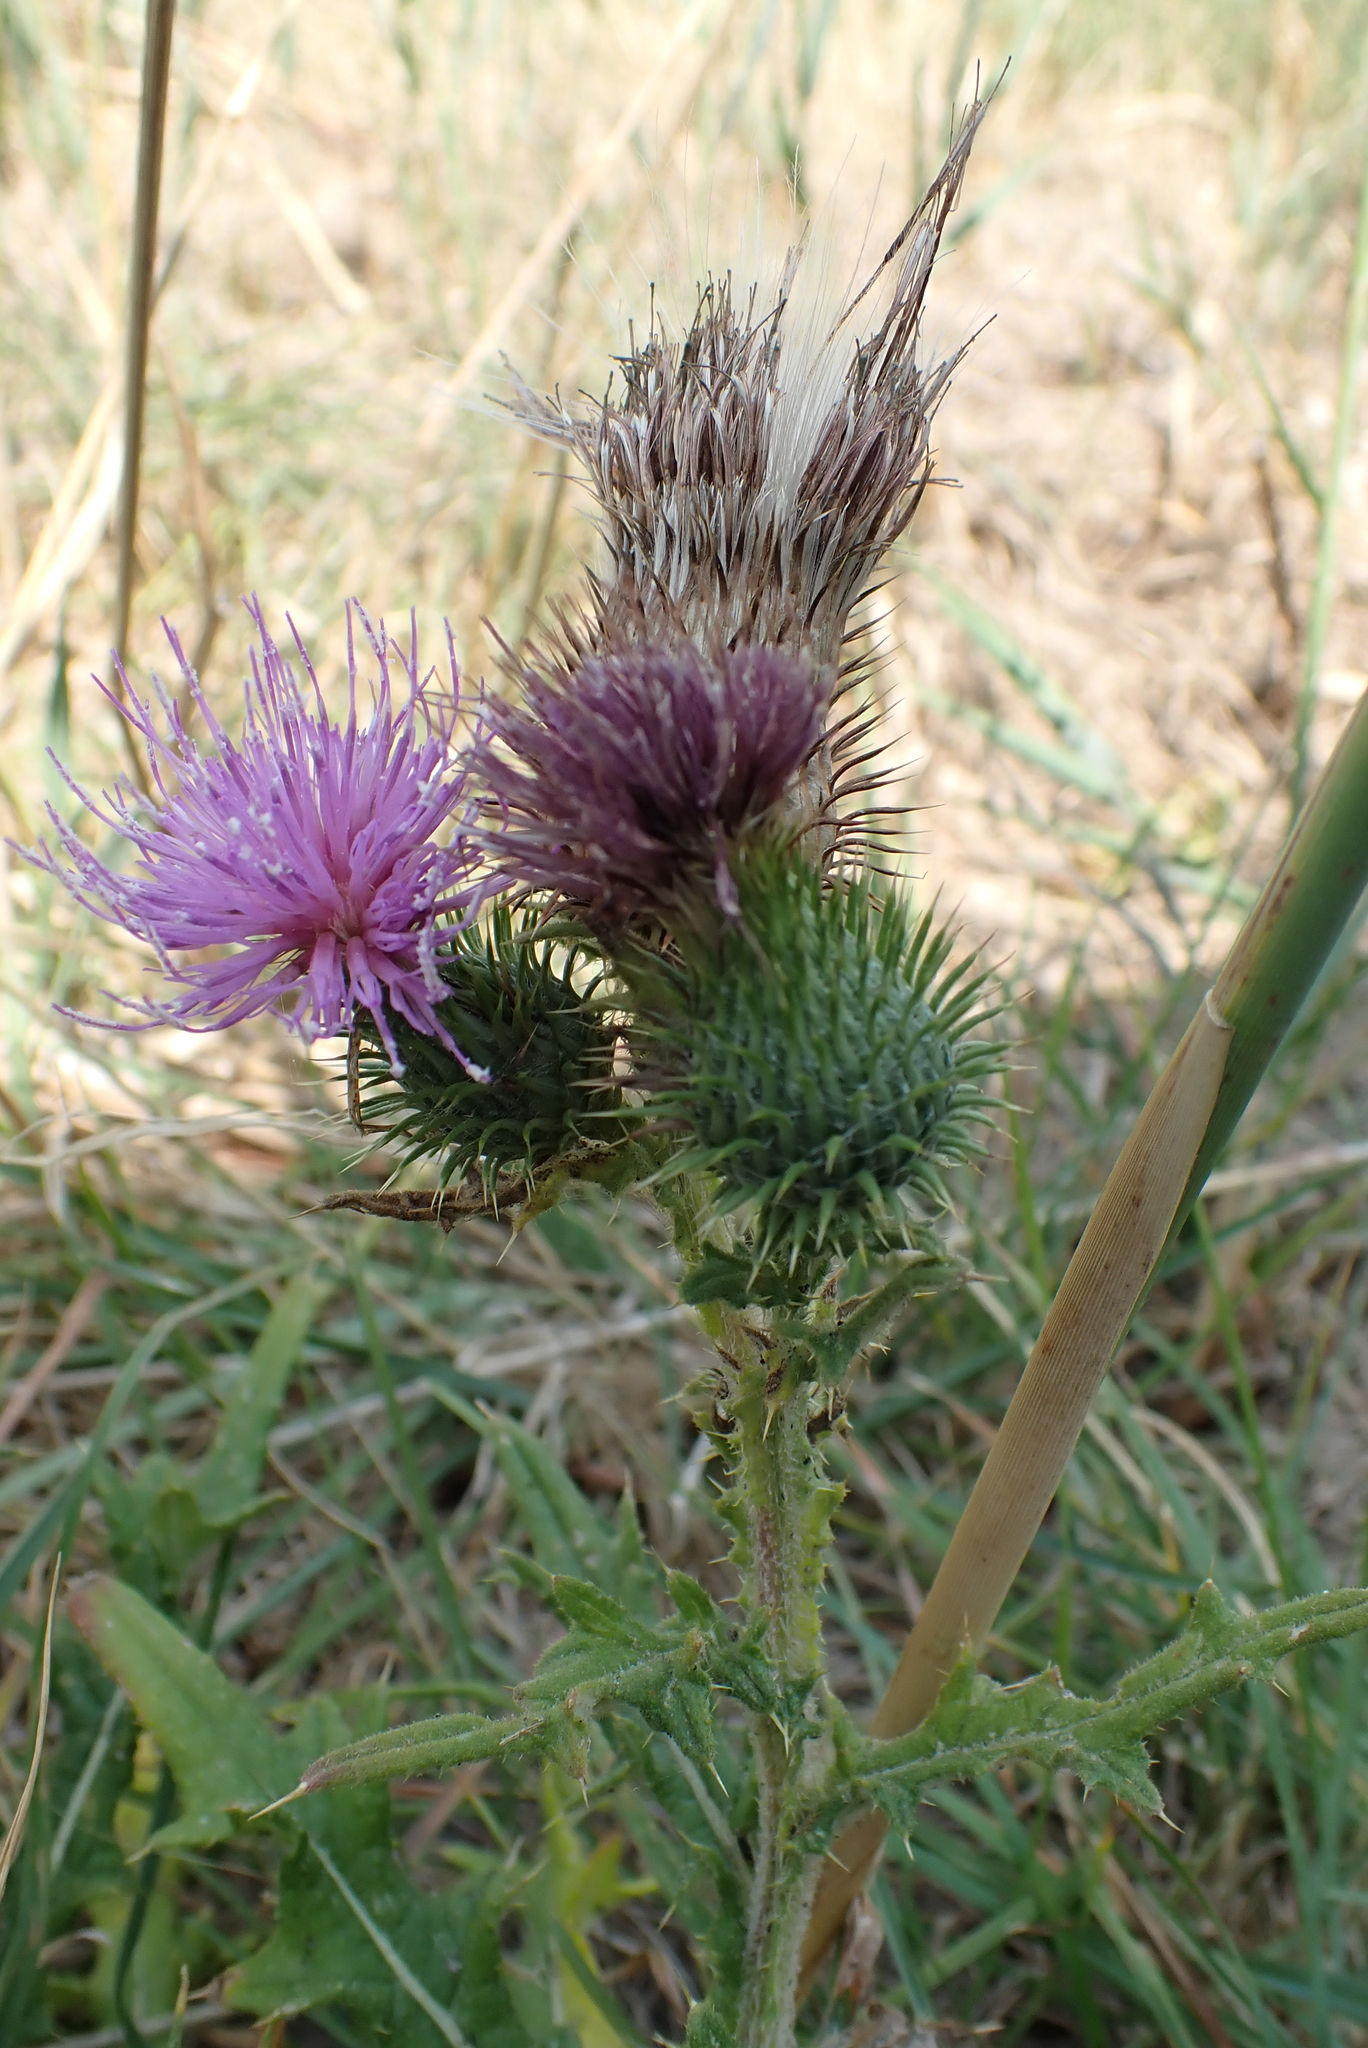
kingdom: Plantae
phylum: Tracheophyta
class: Magnoliopsida
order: Asterales
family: Asteraceae
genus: Cirsium
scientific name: Cirsium vulgare
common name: Bull thistle
